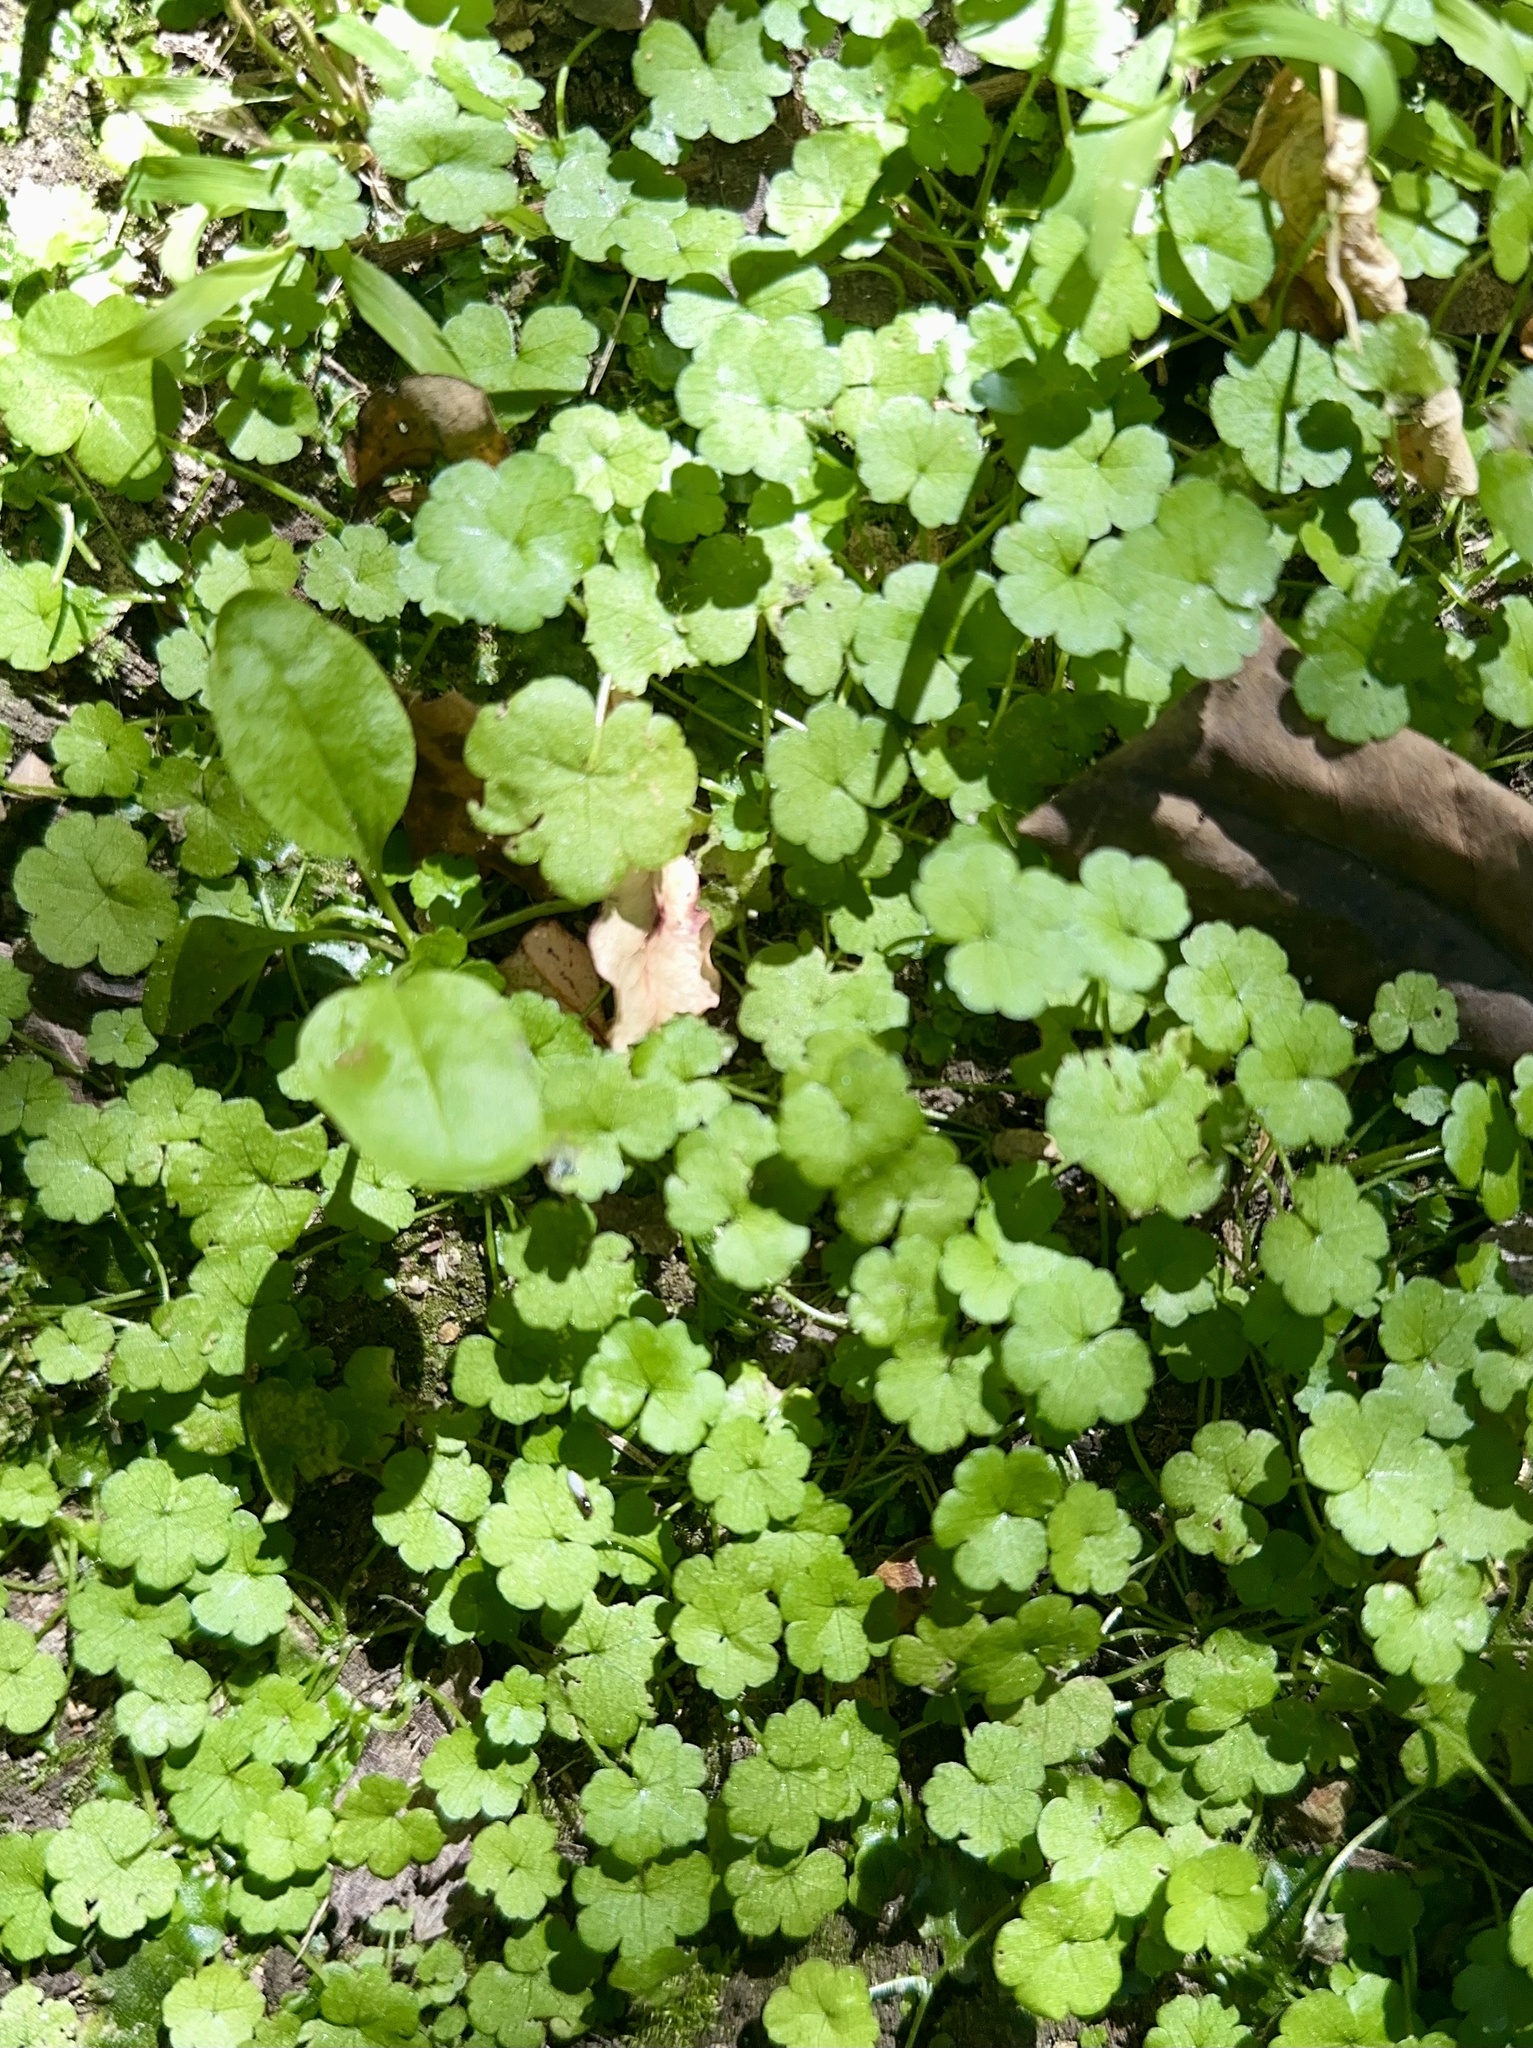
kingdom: Plantae
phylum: Tracheophyta
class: Magnoliopsida
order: Apiales
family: Araliaceae
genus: Hydrocotyle
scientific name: Hydrocotyle heteromeria
